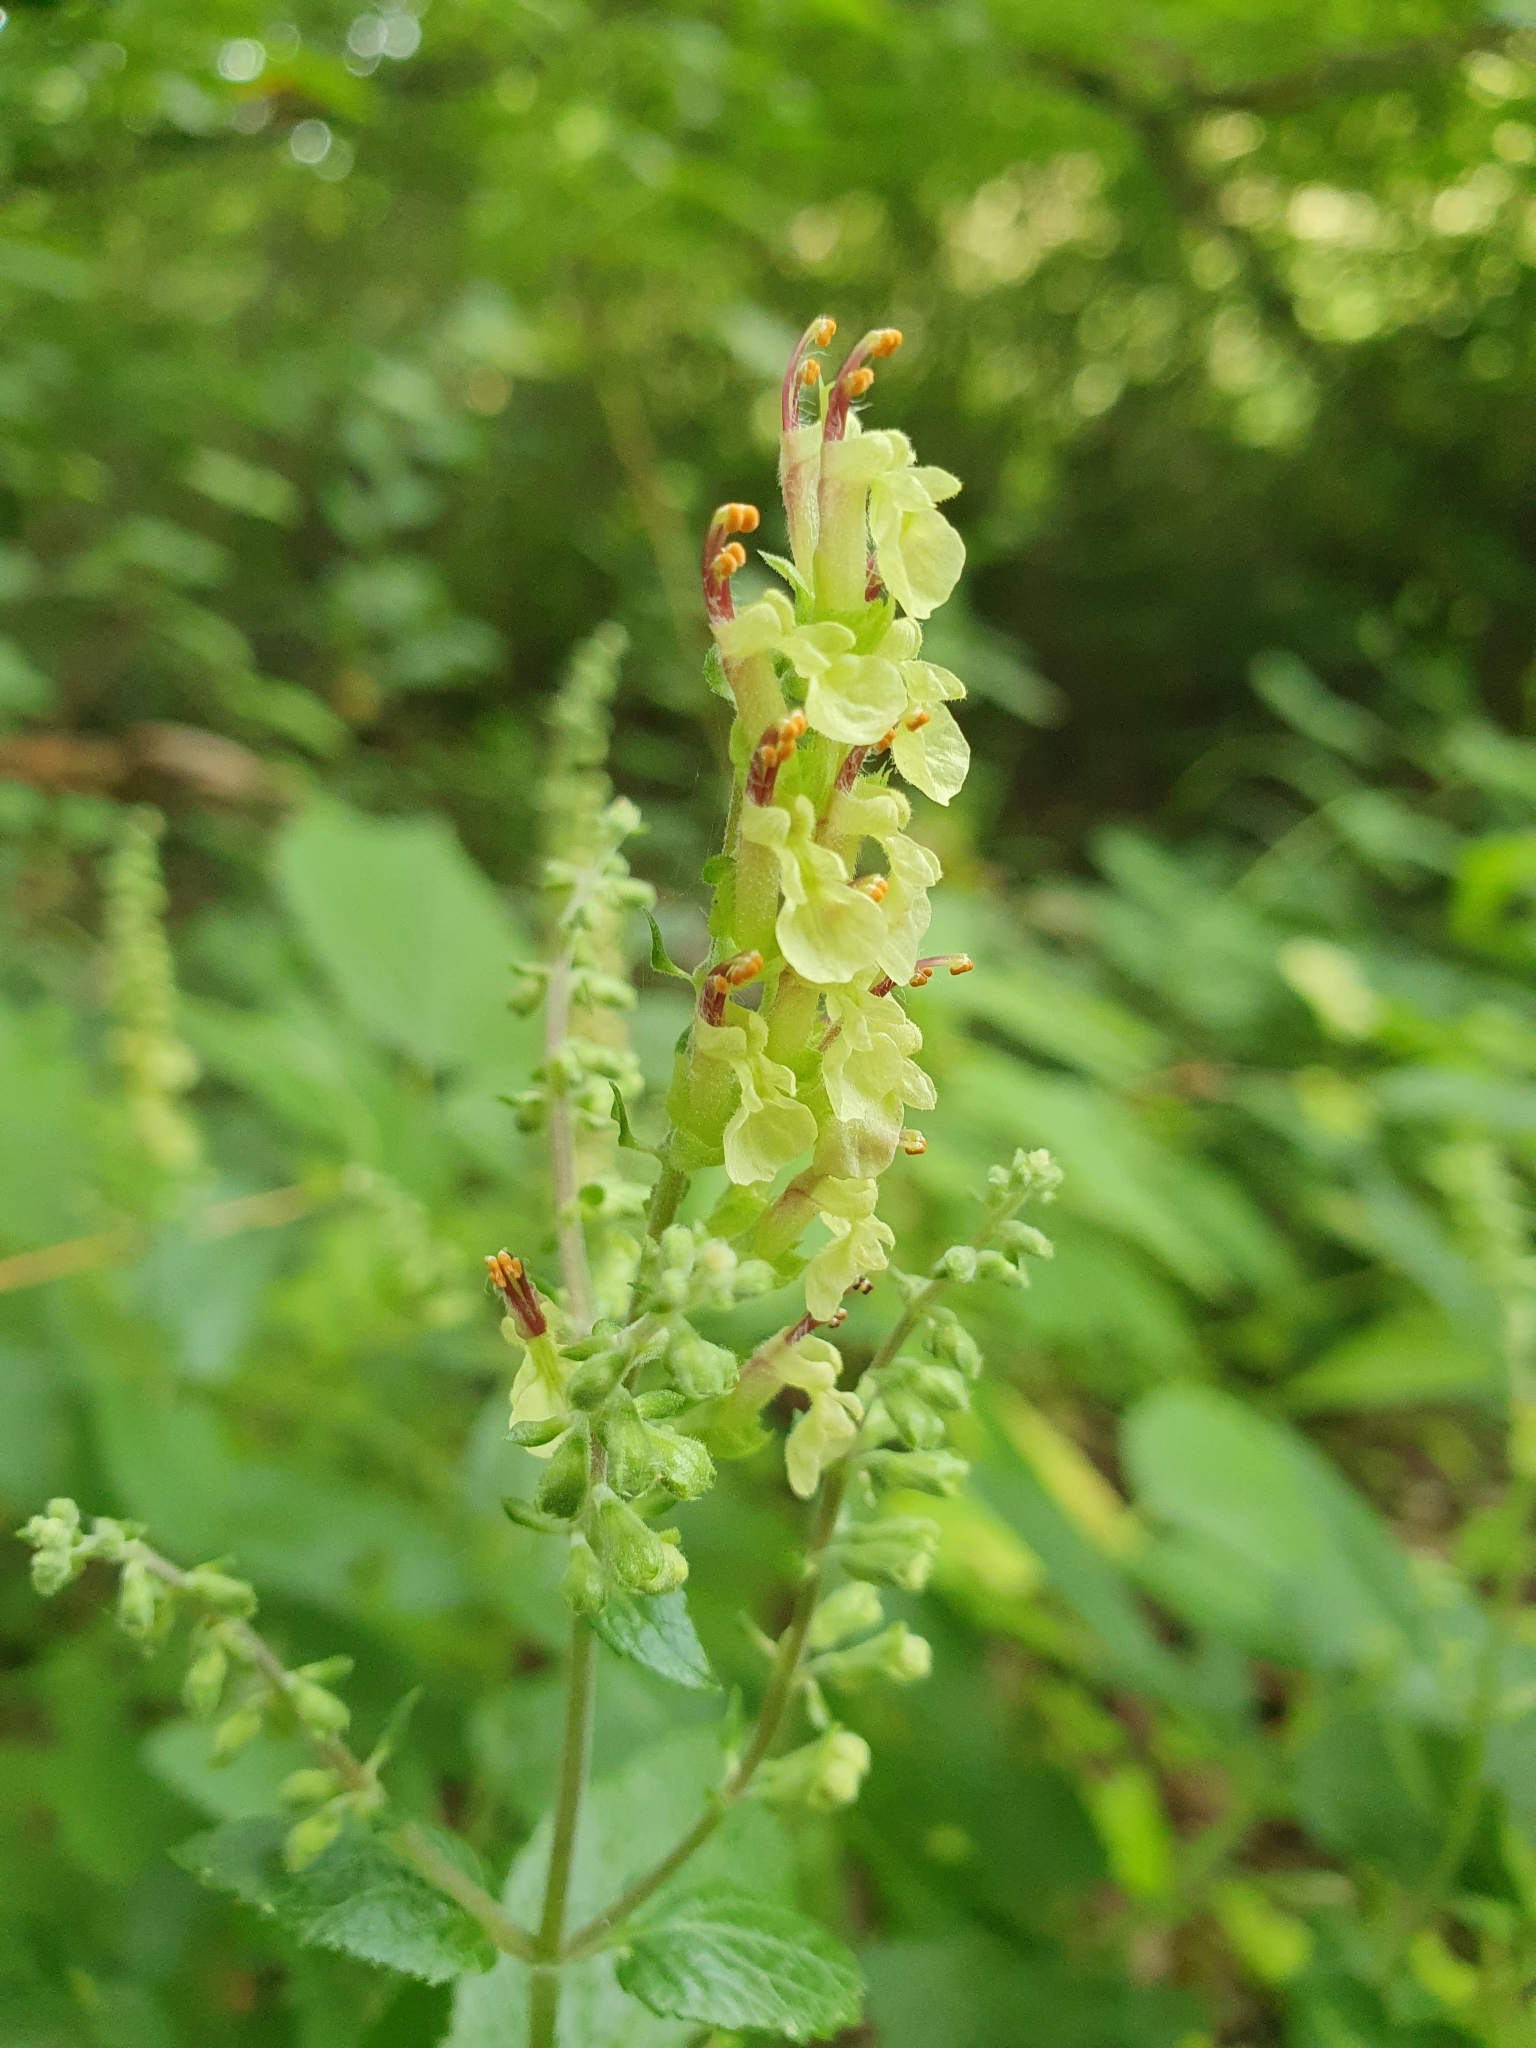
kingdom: Plantae
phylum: Tracheophyta
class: Magnoliopsida
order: Lamiales
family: Lamiaceae
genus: Teucrium
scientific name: Teucrium scorodonia
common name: Woodland germander
